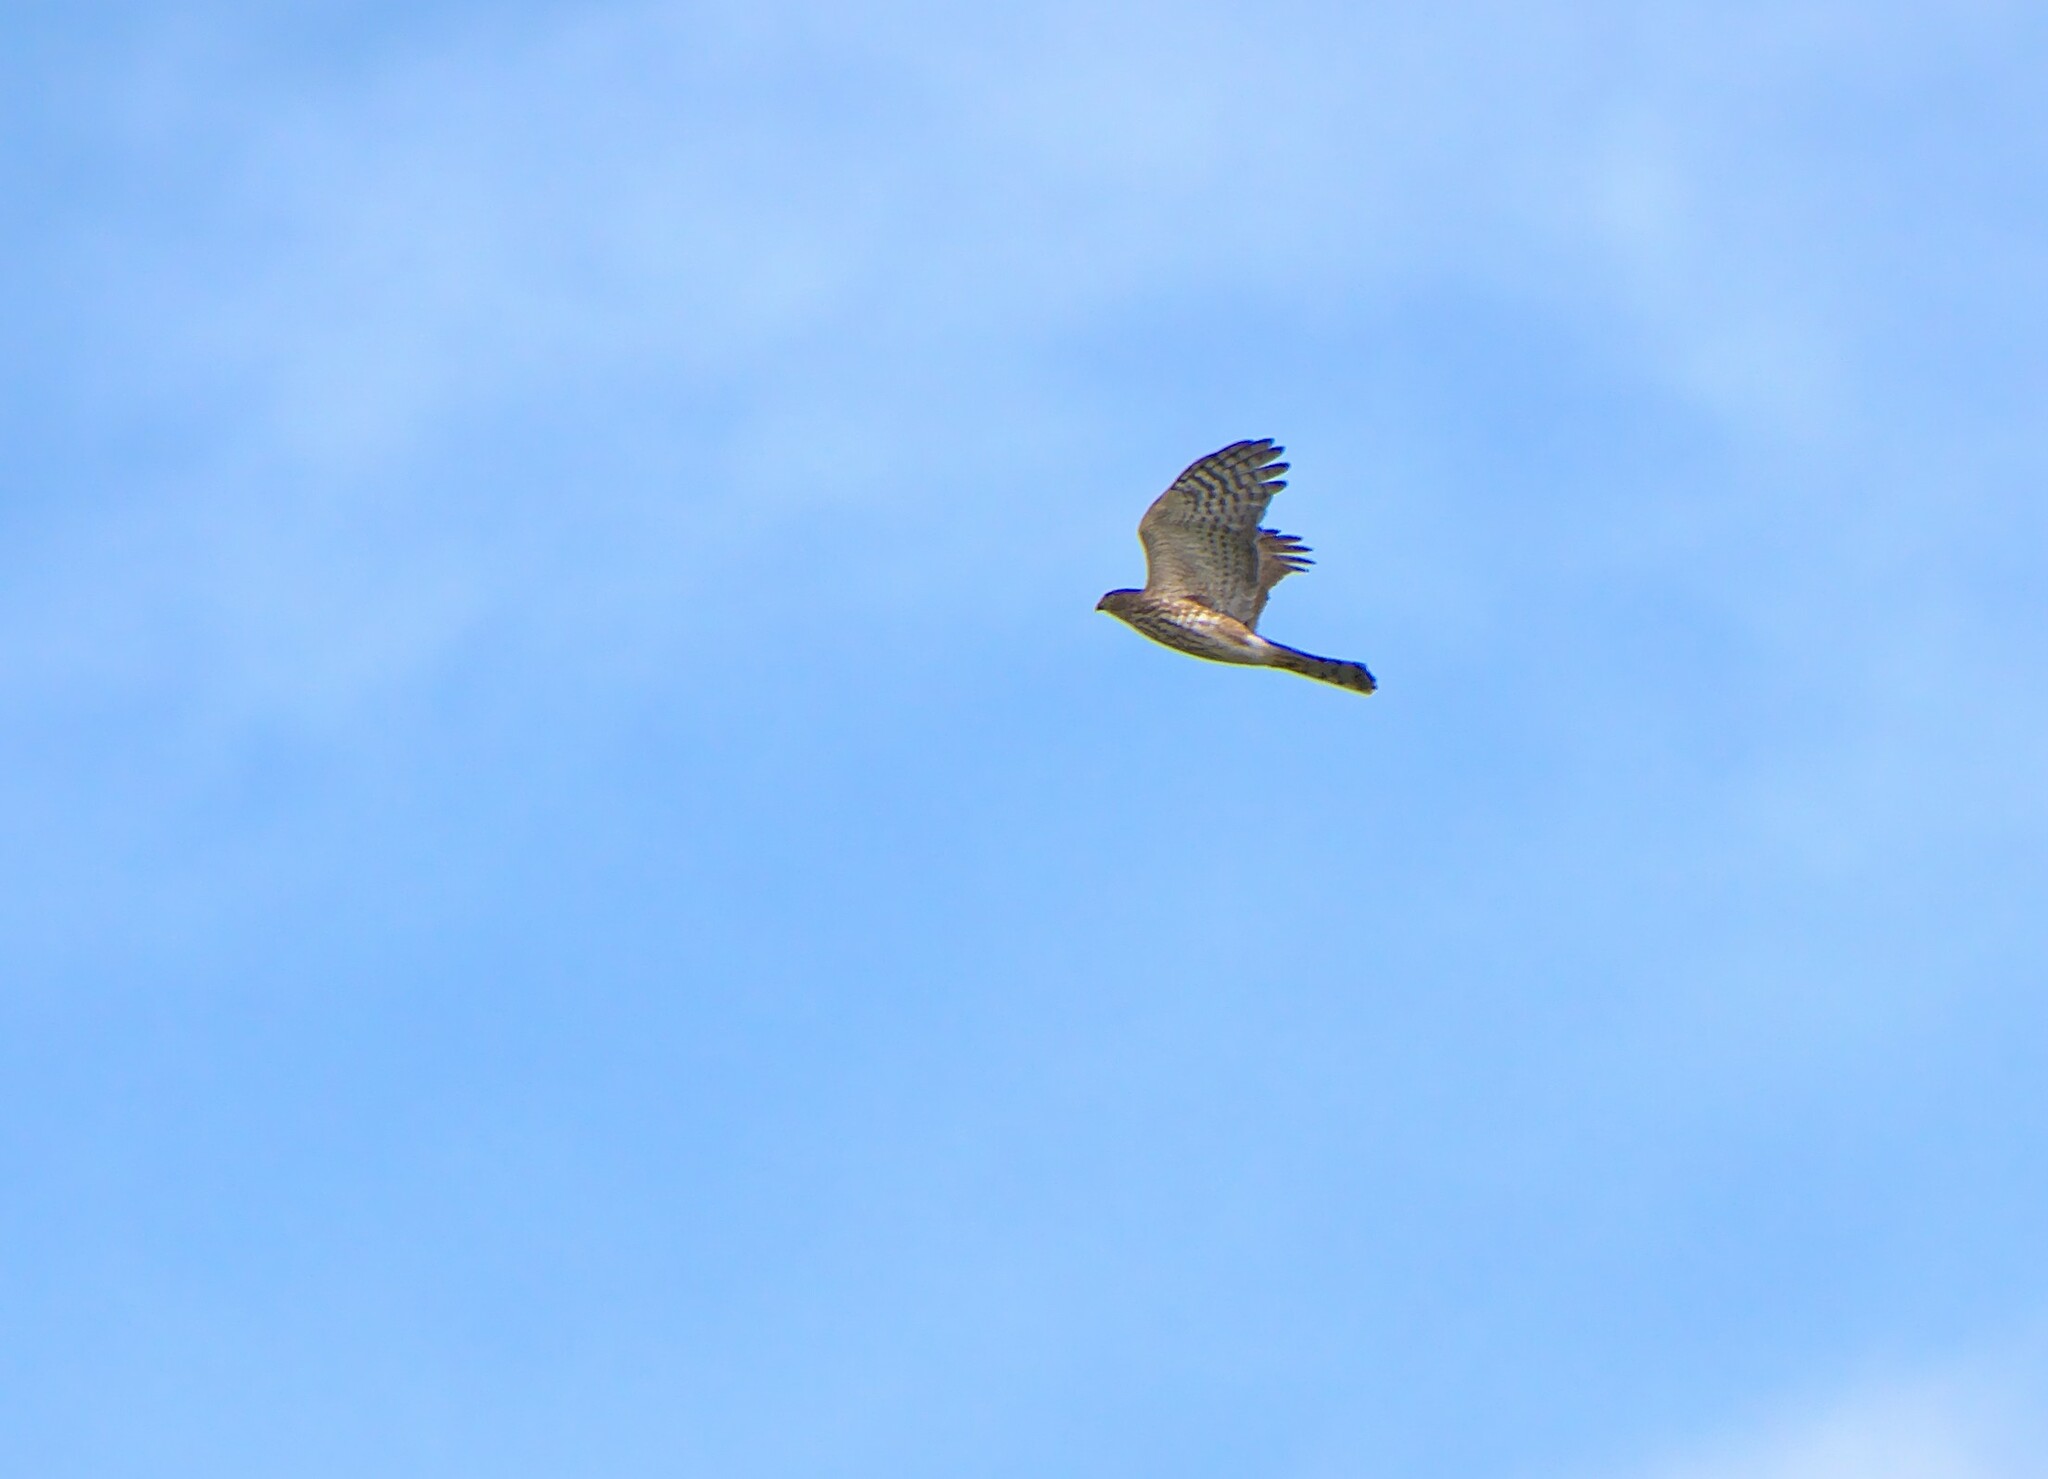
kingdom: Animalia
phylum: Chordata
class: Aves
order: Accipitriformes
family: Accipitridae
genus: Accipiter
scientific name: Accipiter striatus
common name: Sharp-shinned hawk
